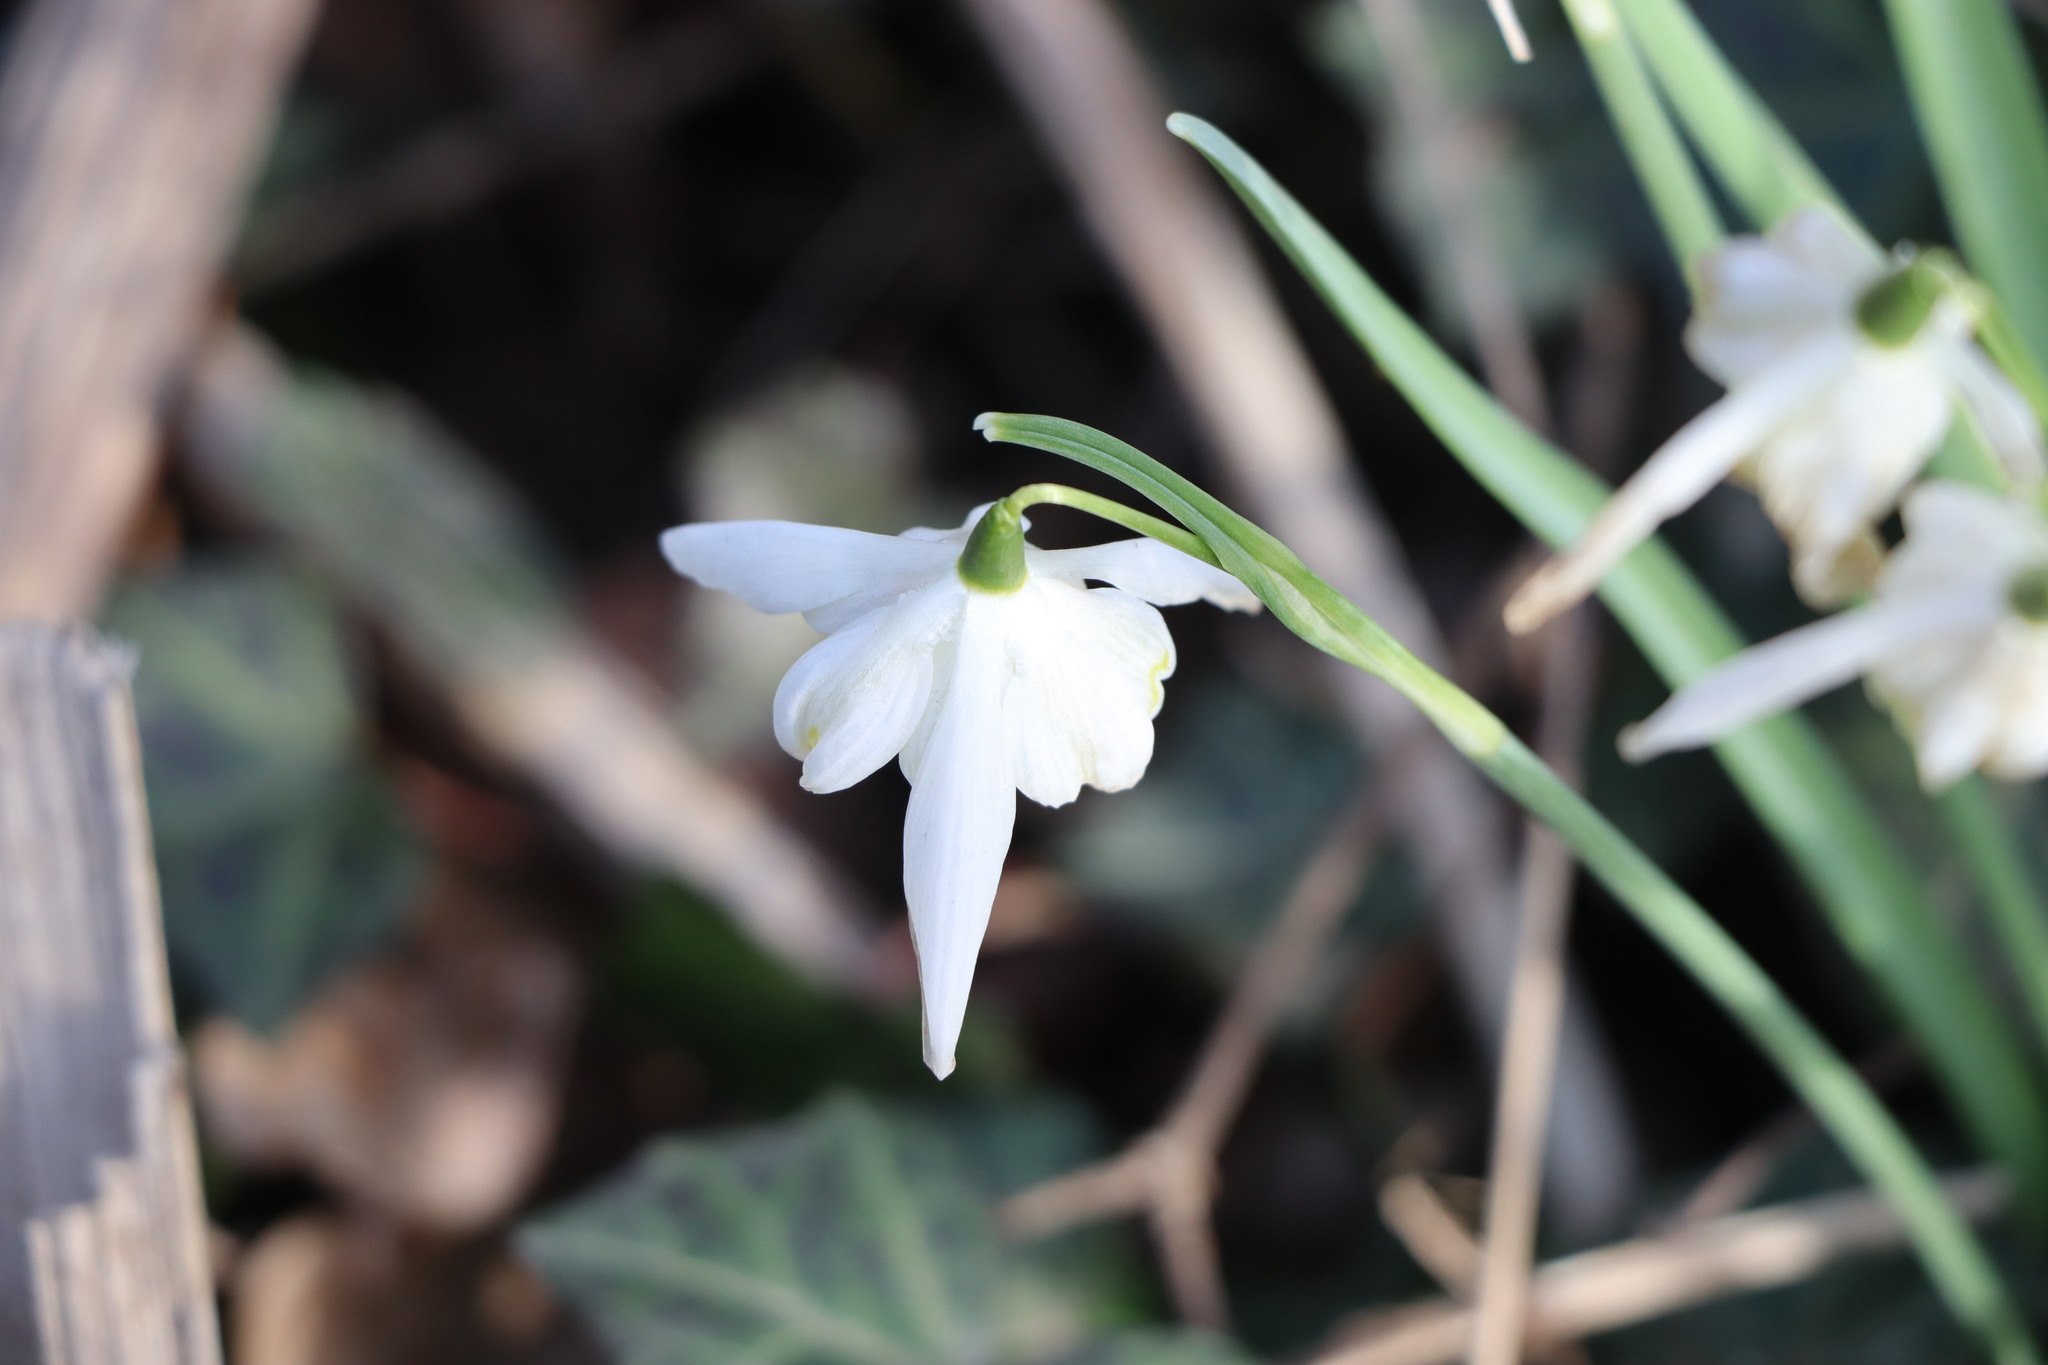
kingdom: Plantae
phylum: Tracheophyta
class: Liliopsida
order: Asparagales
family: Amaryllidaceae
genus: Galanthus
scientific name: Galanthus nivalis
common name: Snowdrop
